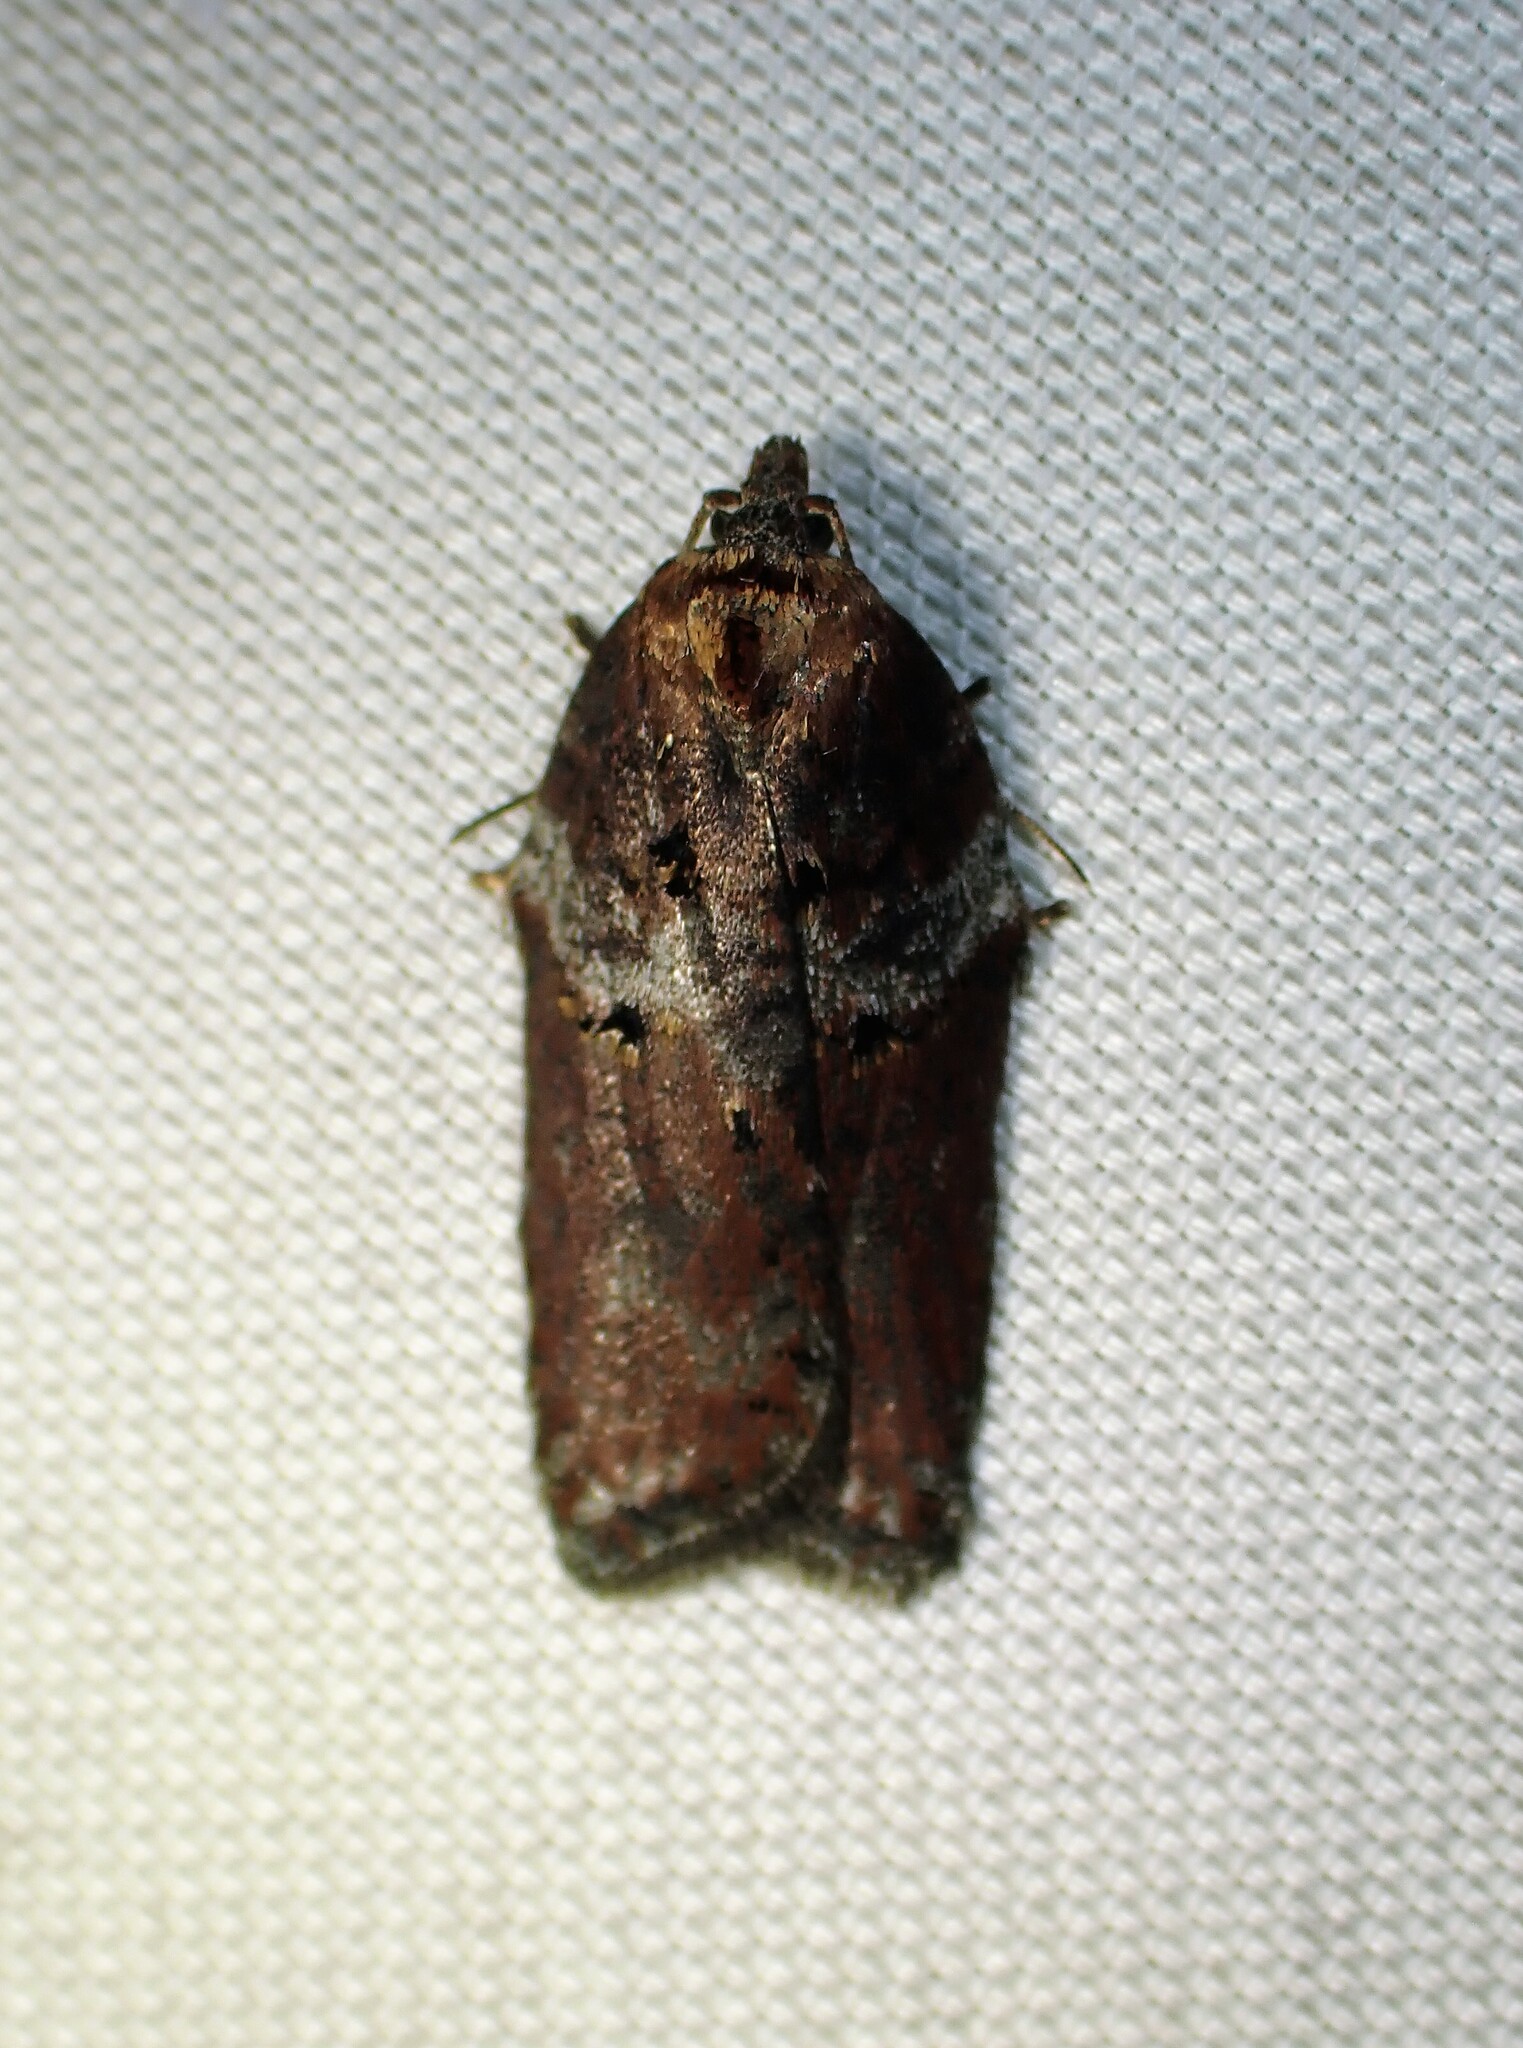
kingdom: Animalia
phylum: Arthropoda
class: Insecta
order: Lepidoptera
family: Tortricidae
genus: Acleris
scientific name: Acleris celiana
